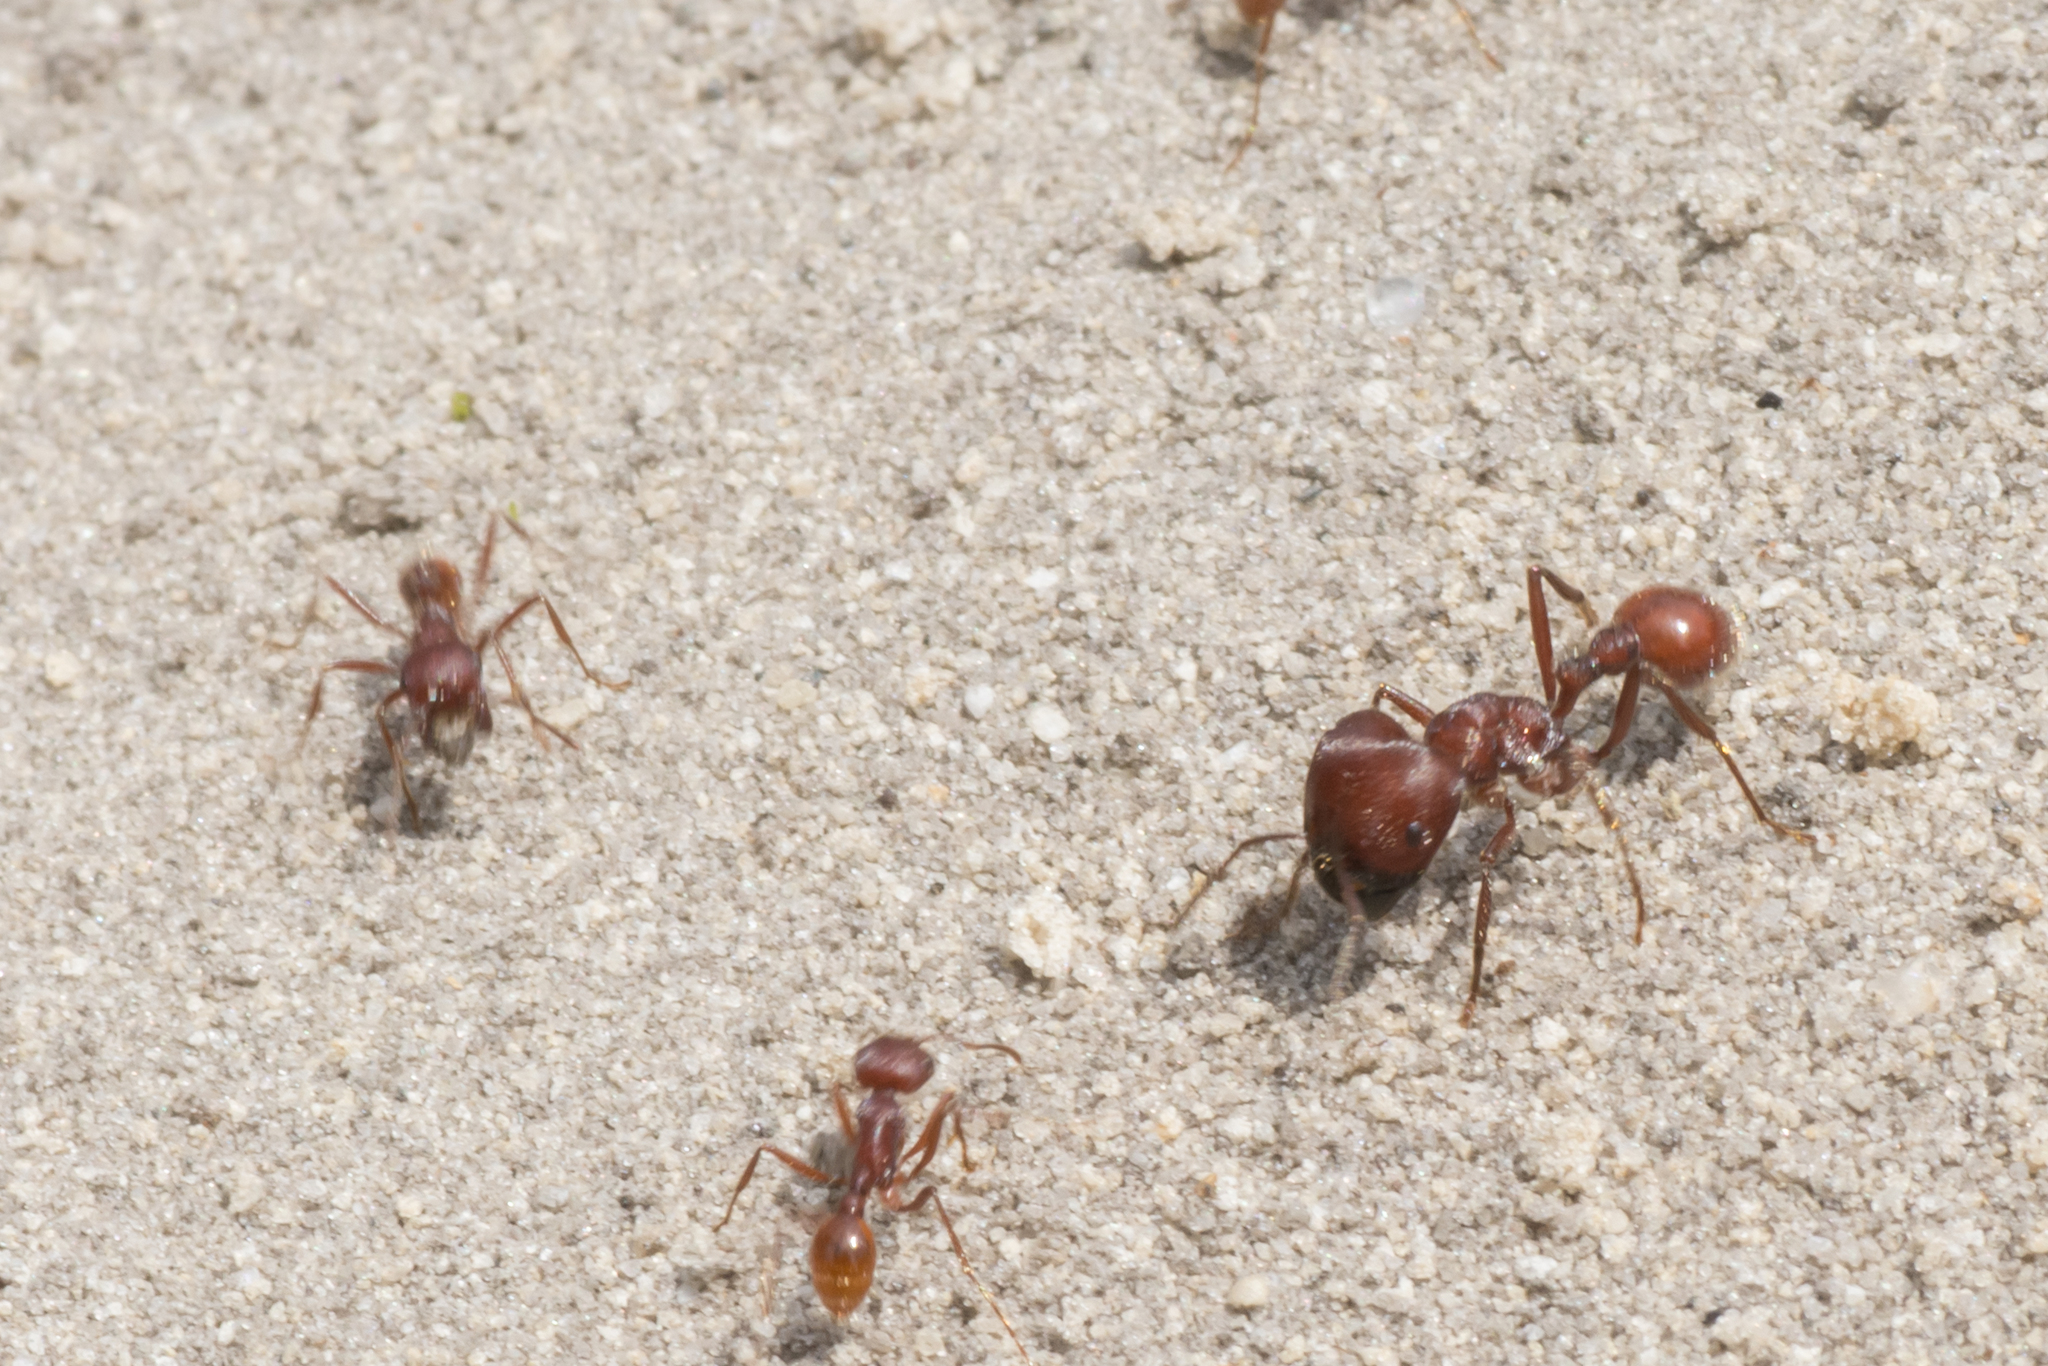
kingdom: Animalia
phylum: Arthropoda
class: Insecta
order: Hymenoptera
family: Formicidae
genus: Pogonomyrmex
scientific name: Pogonomyrmex badius
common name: Florida harvester ant
